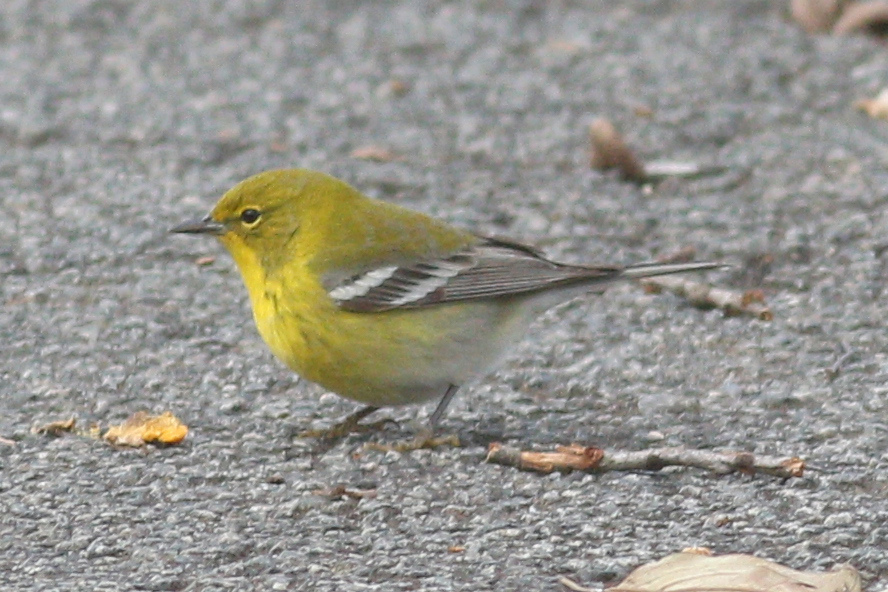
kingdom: Animalia
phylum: Chordata
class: Aves
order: Passeriformes
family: Parulidae
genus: Setophaga
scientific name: Setophaga pinus
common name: Pine warbler
